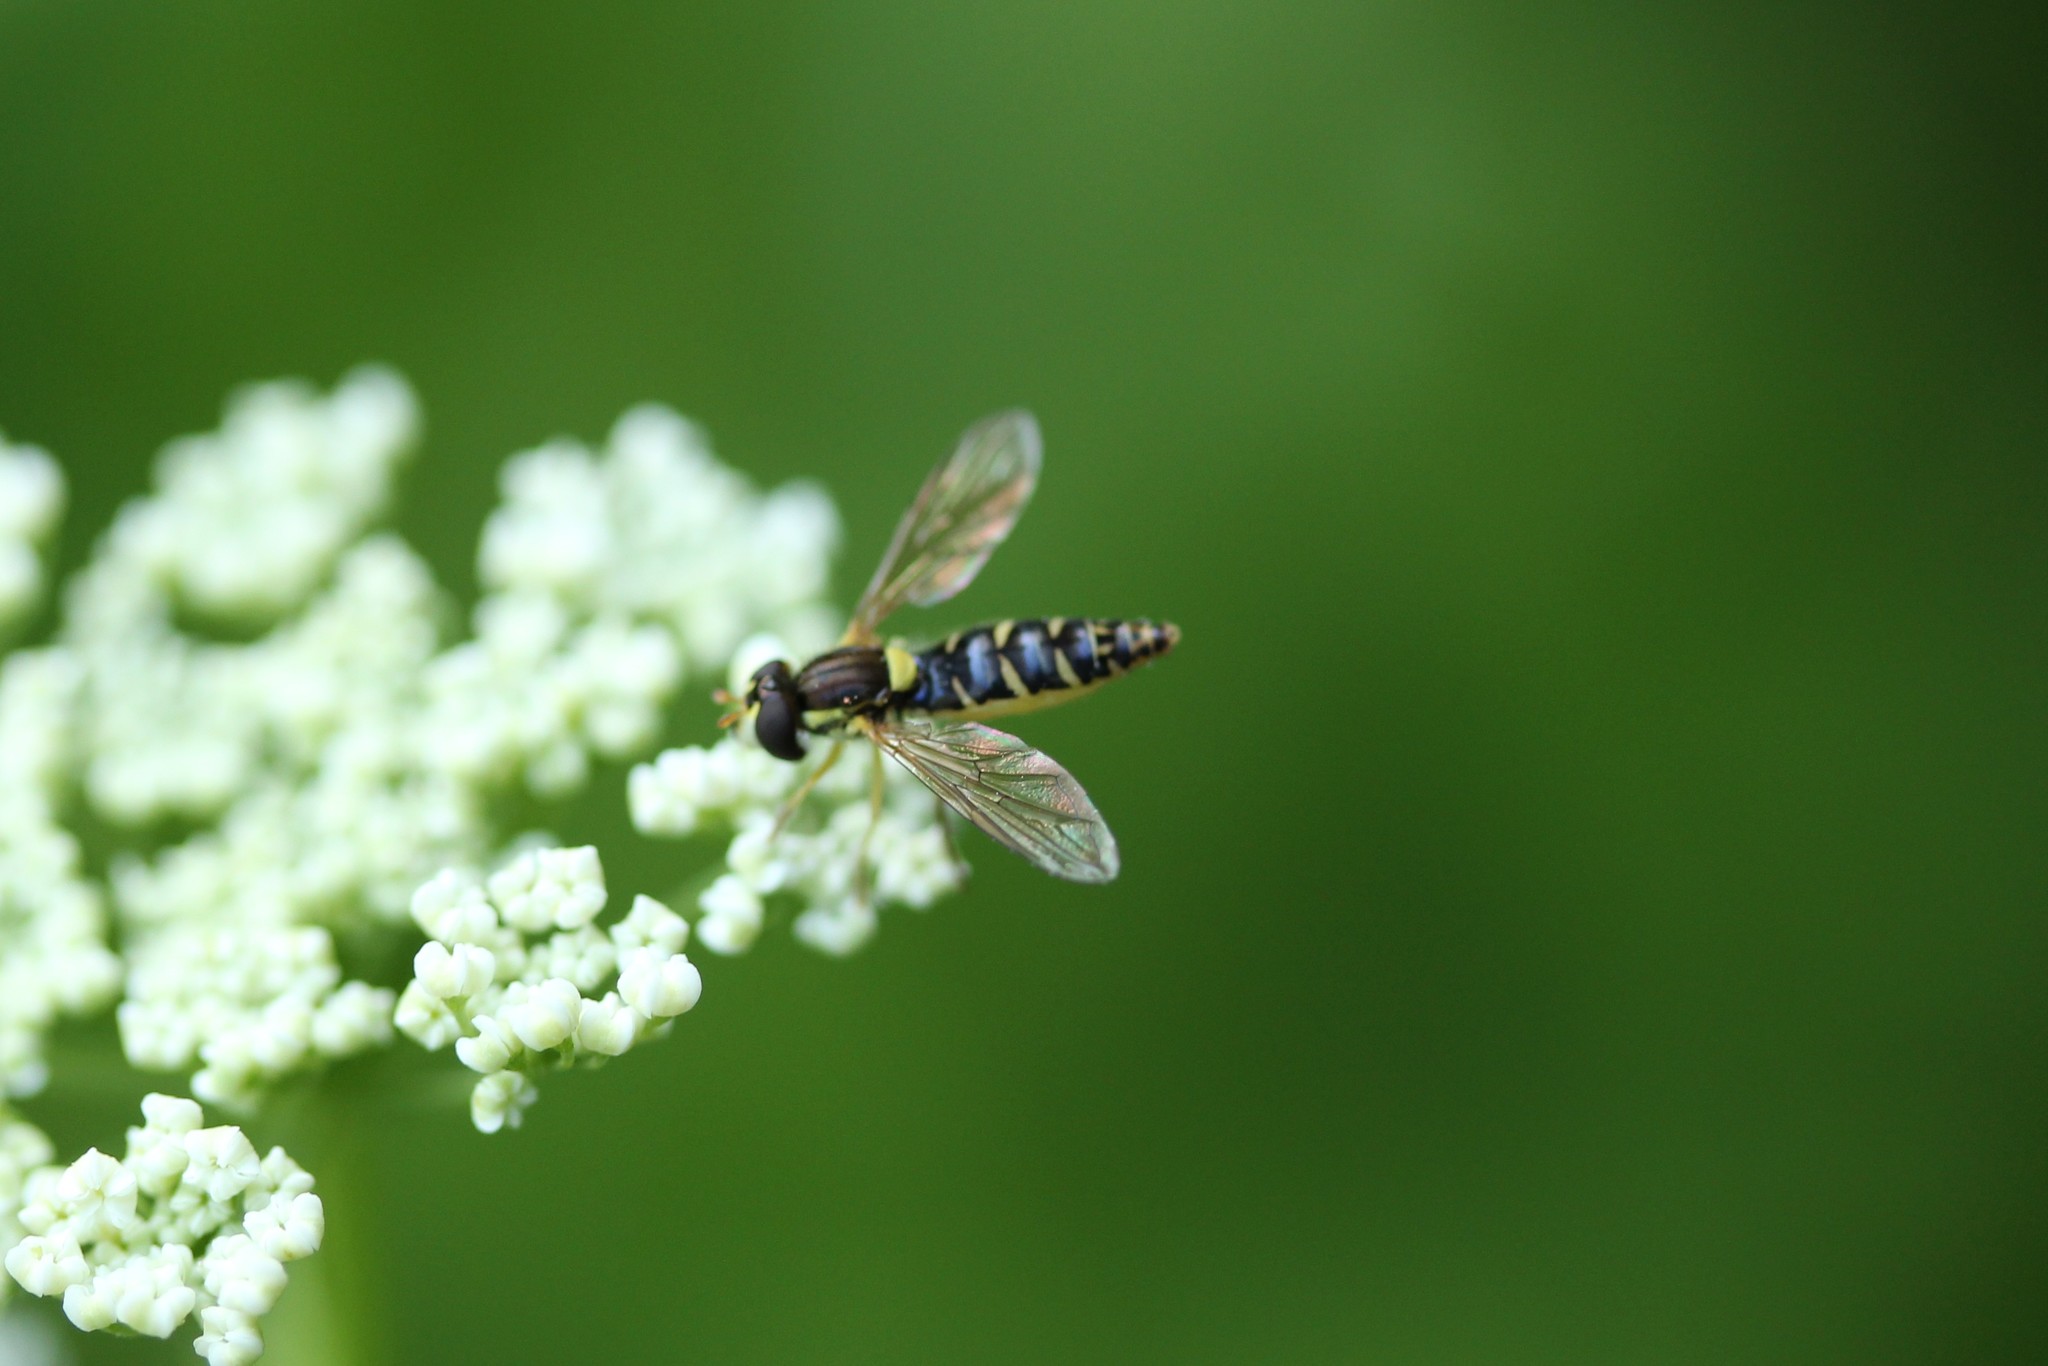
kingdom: Animalia
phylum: Arthropoda
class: Insecta
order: Diptera
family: Syrphidae
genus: Sphaerophoria
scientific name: Sphaerophoria
